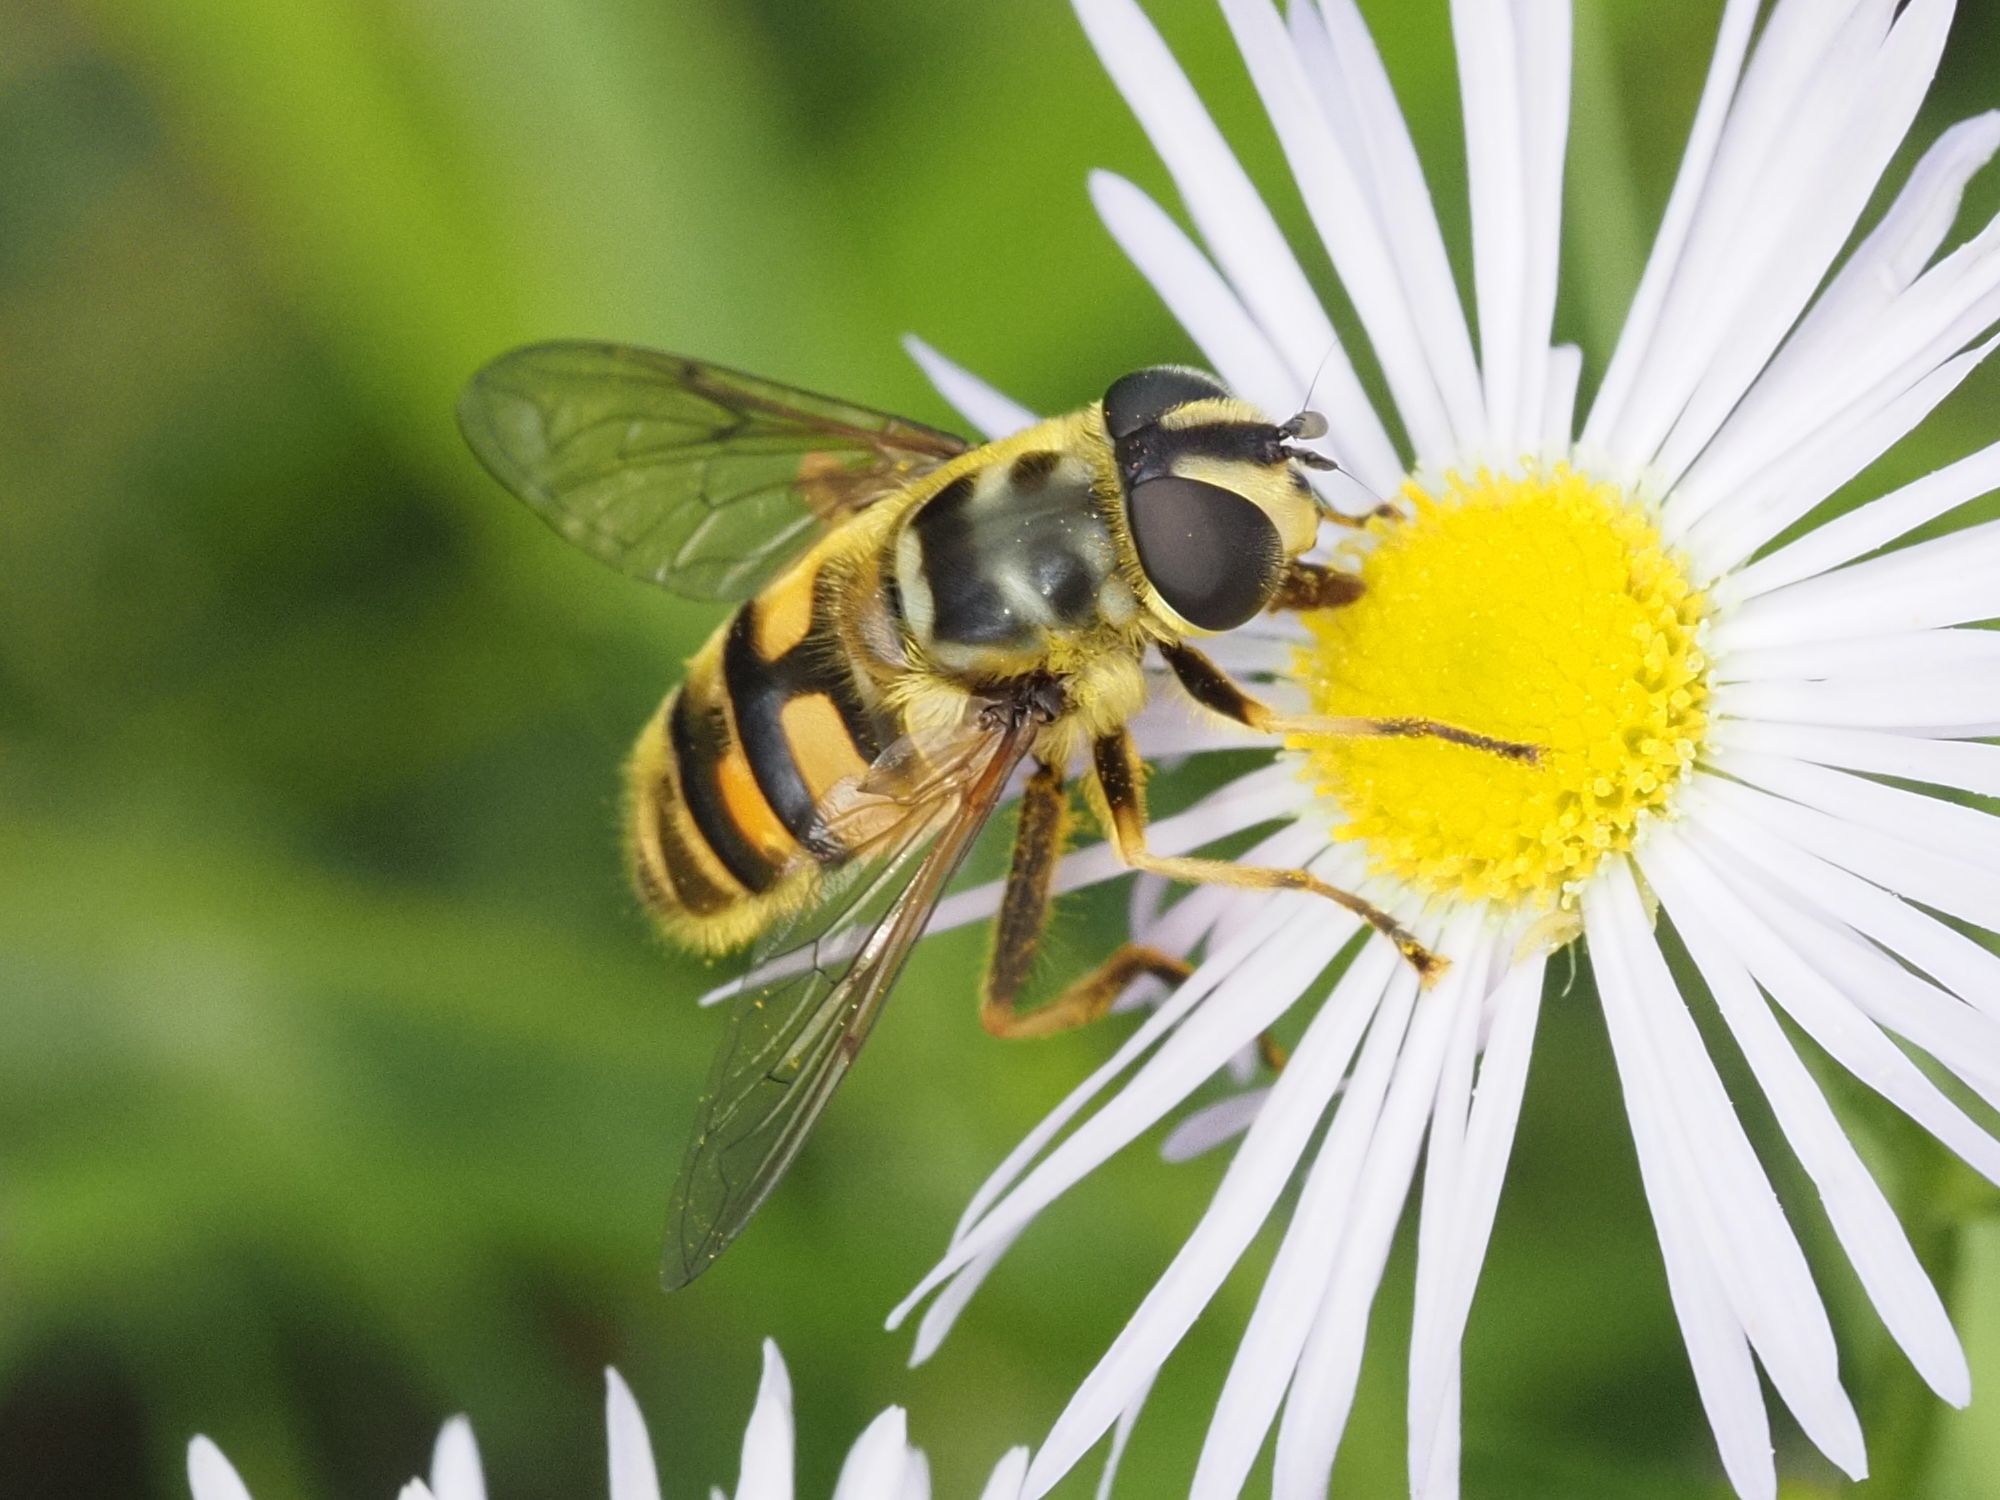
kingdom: Animalia
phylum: Arthropoda
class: Insecta
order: Diptera
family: Syrphidae
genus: Myathropa
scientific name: Myathropa florea
